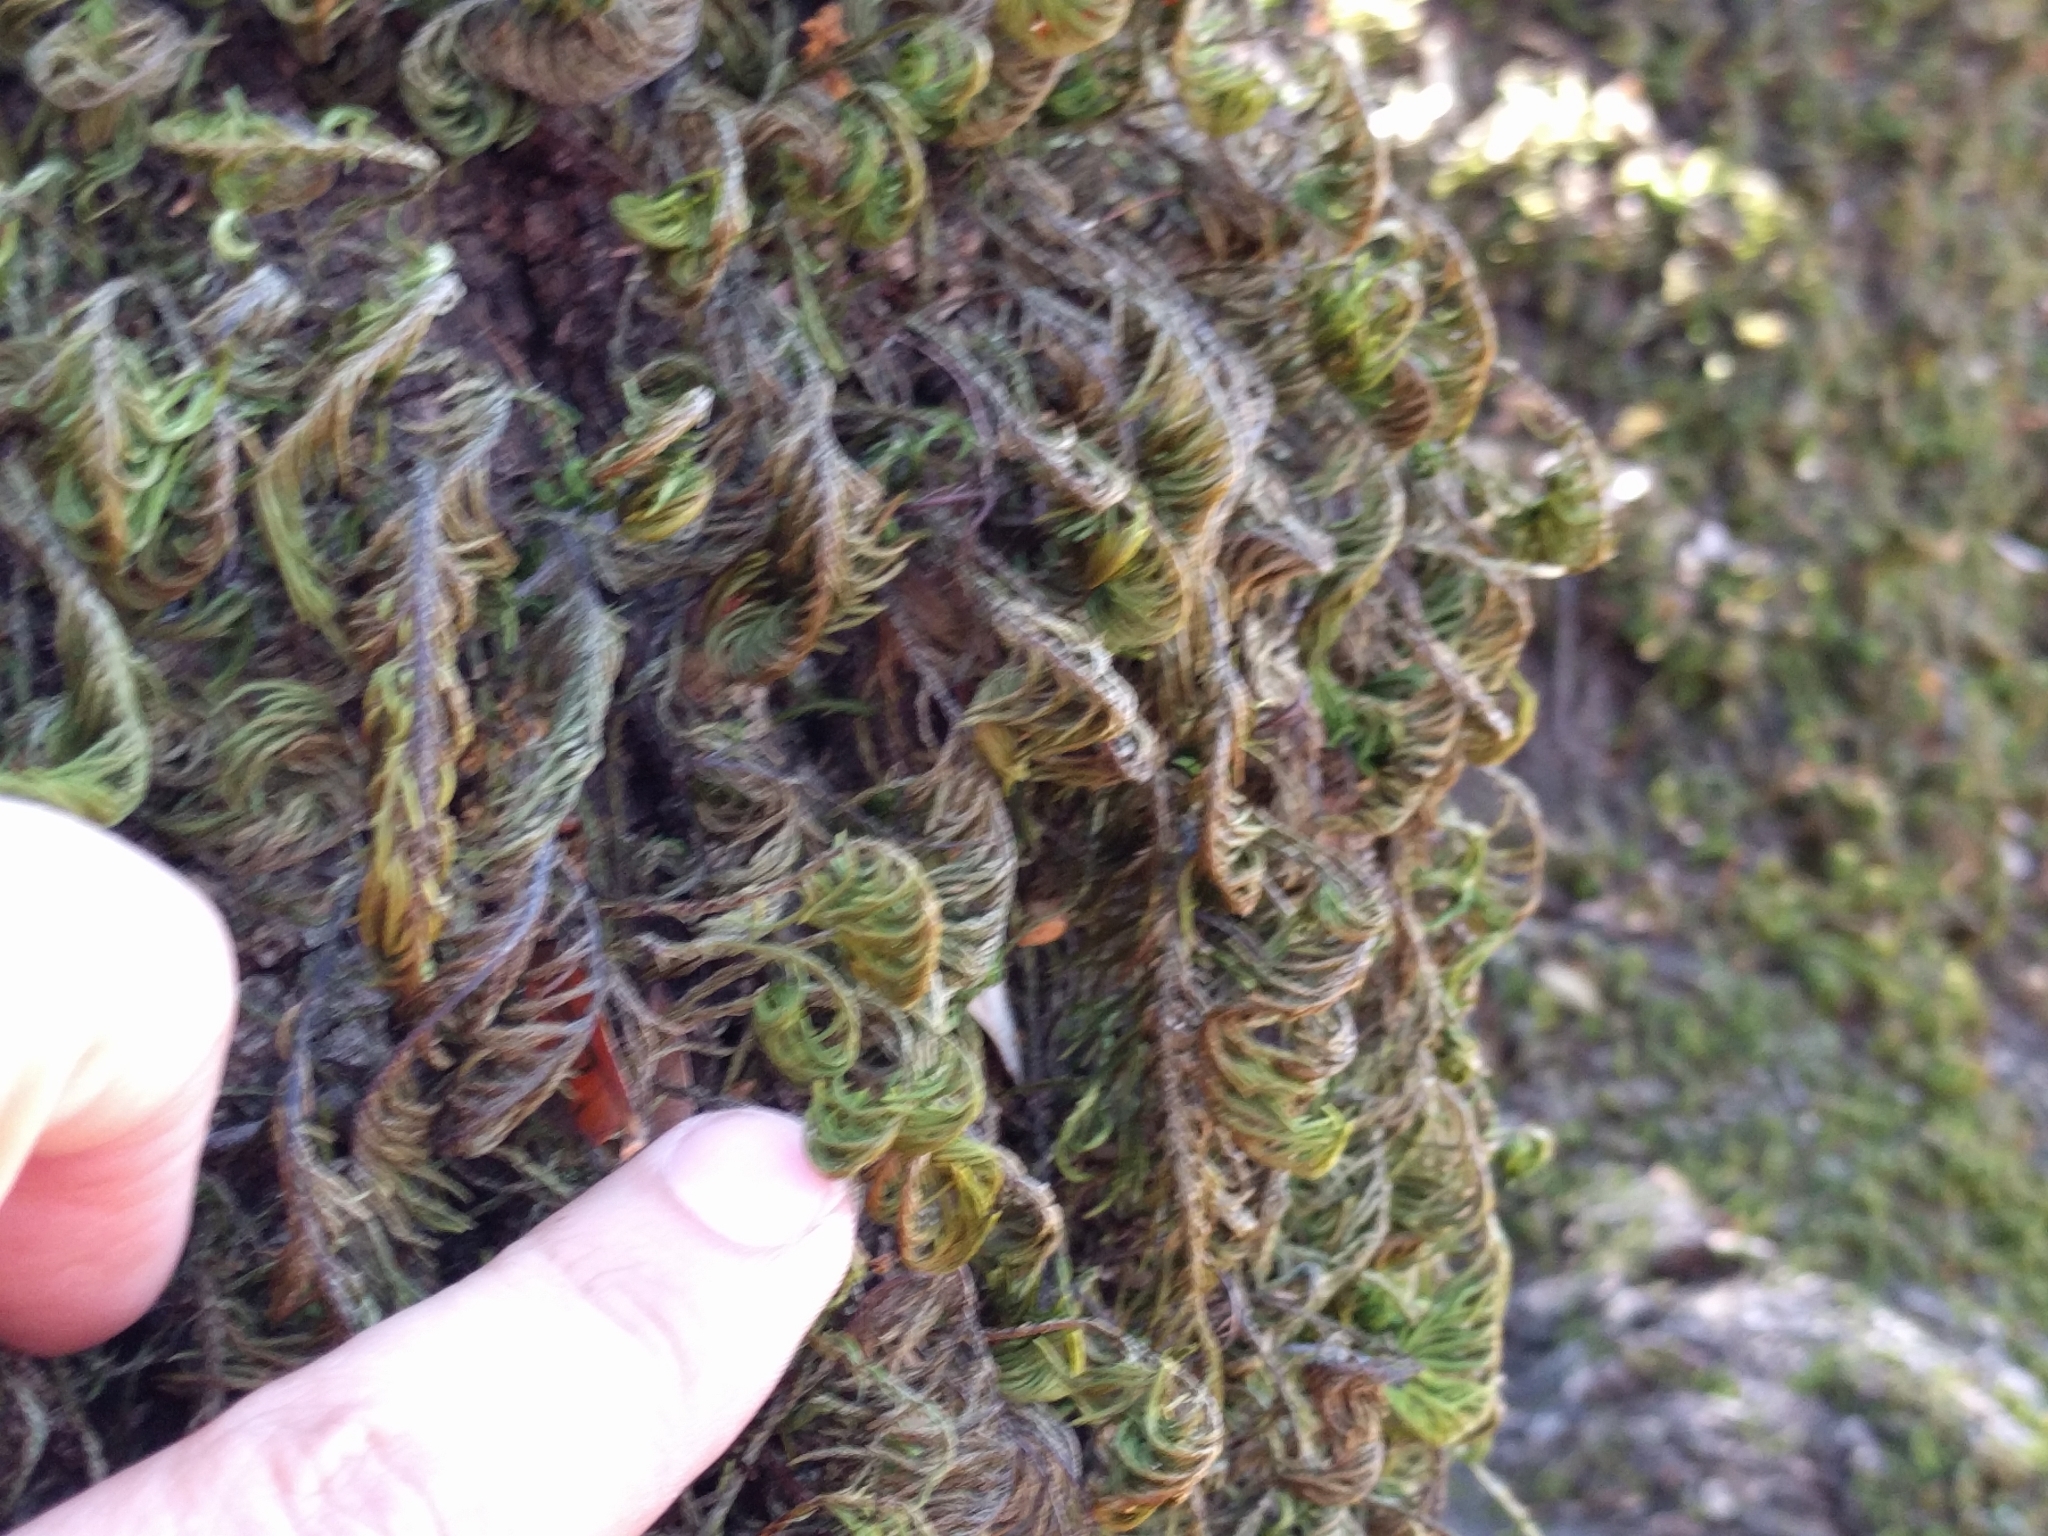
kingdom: Plantae
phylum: Bryophyta
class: Bryopsida
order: Hypnales
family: Cryphaeaceae
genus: Dendroalsia
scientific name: Dendroalsia abietina
